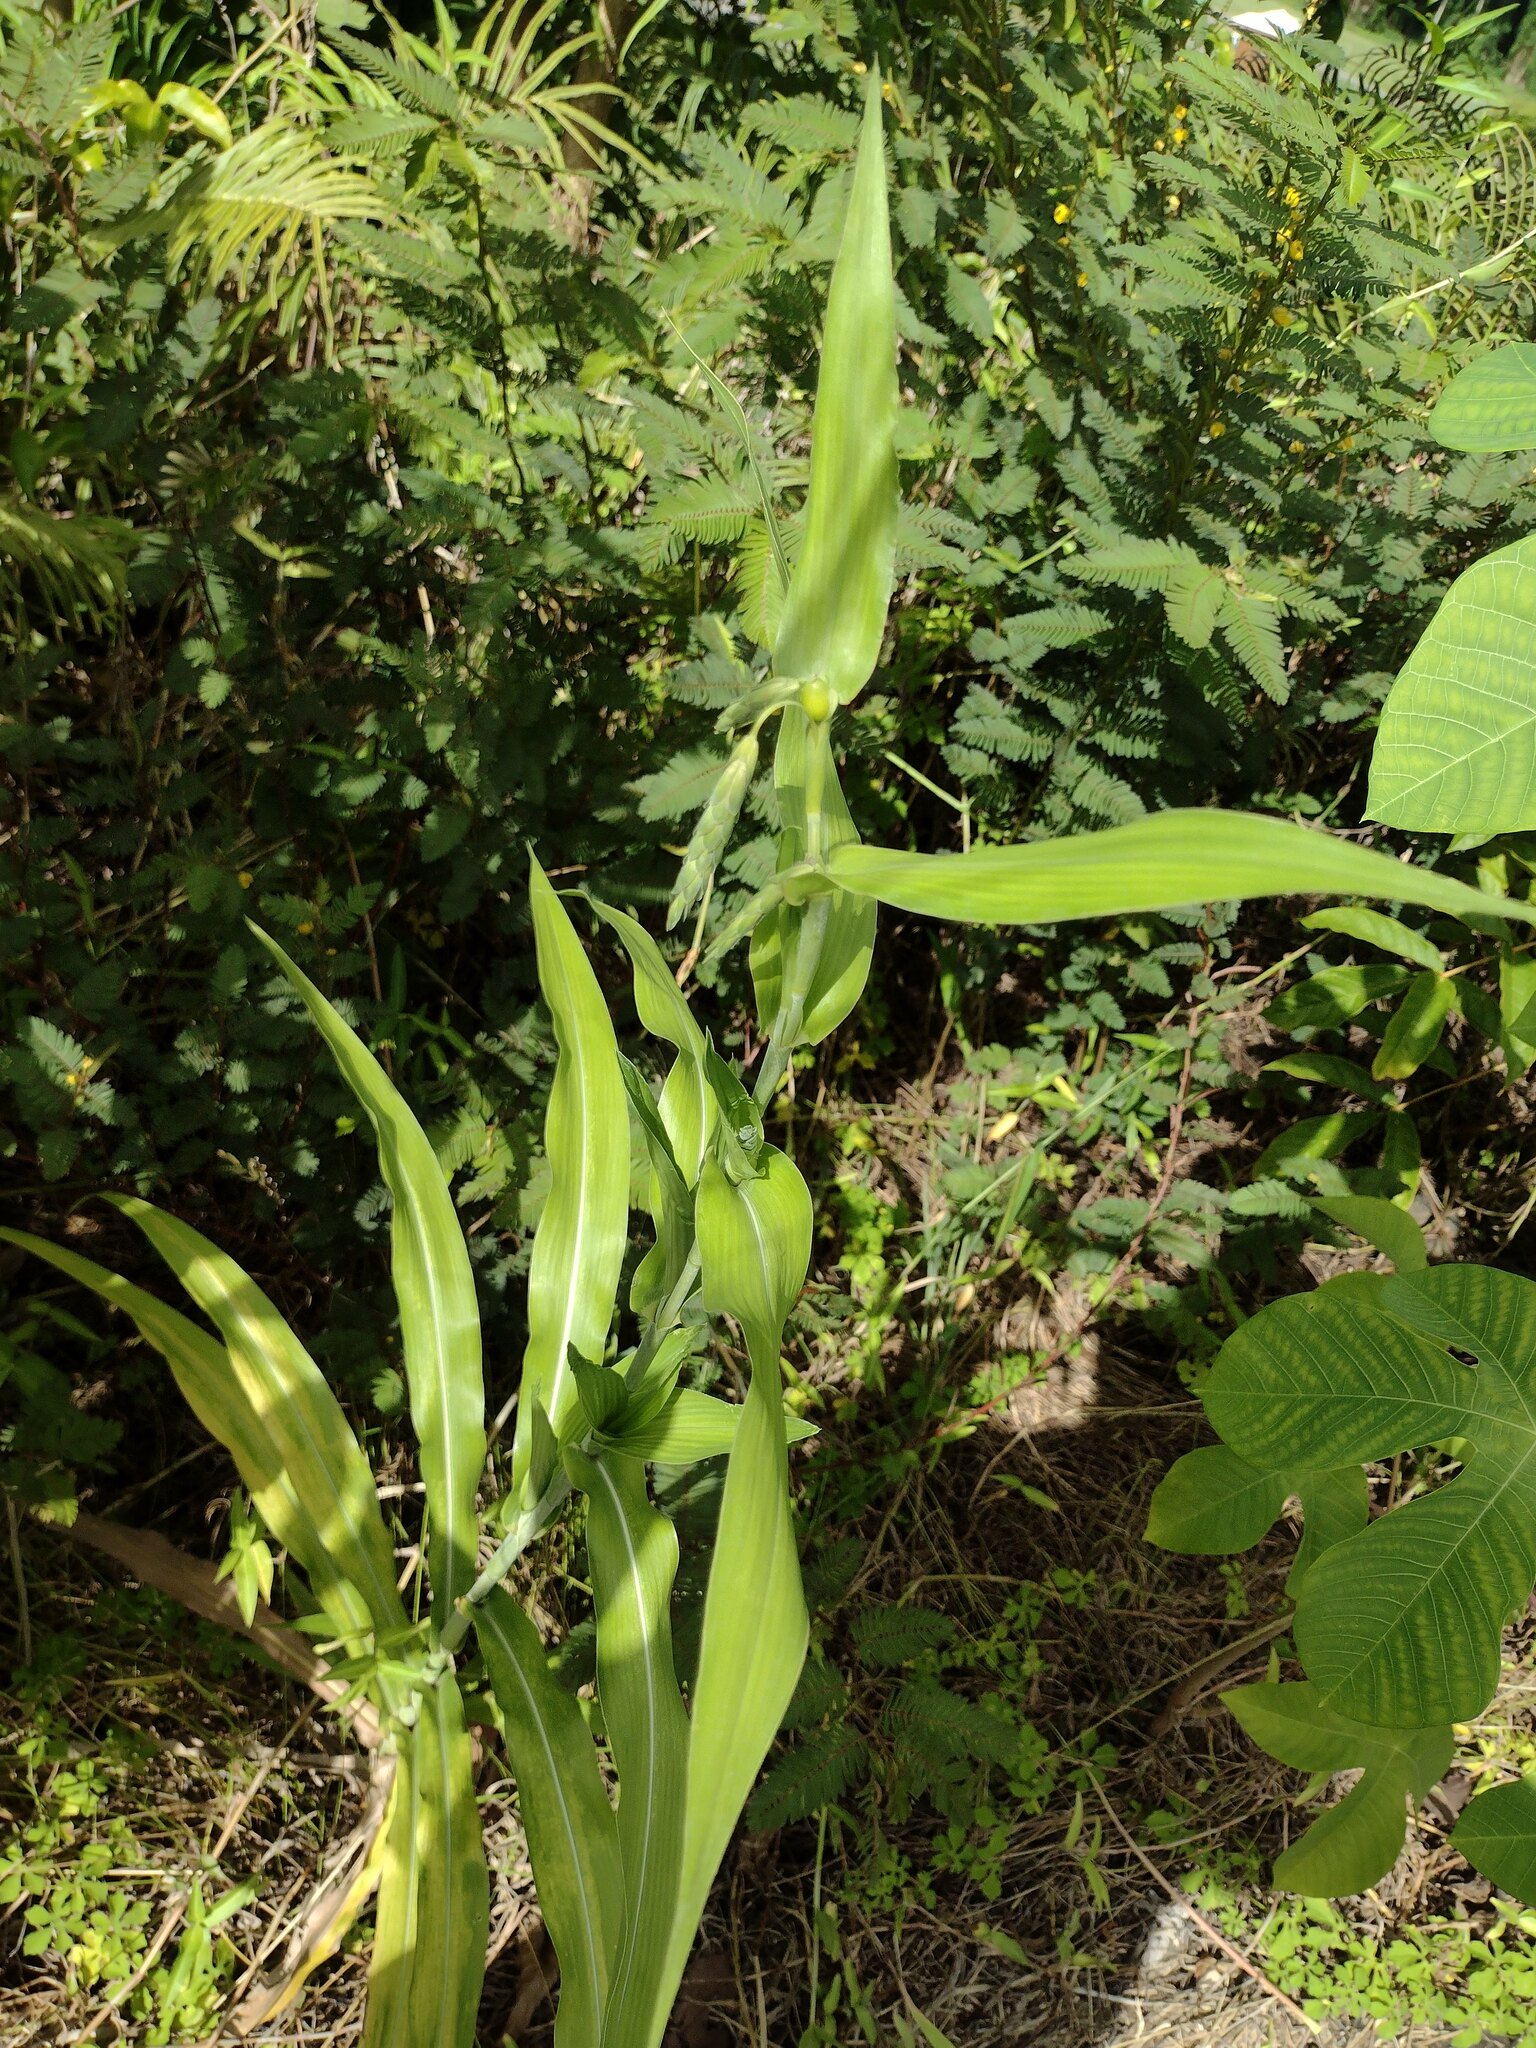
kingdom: Plantae
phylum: Tracheophyta
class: Liliopsida
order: Poales
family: Poaceae
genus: Coix
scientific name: Coix lacryma-jobi
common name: Job's tears
